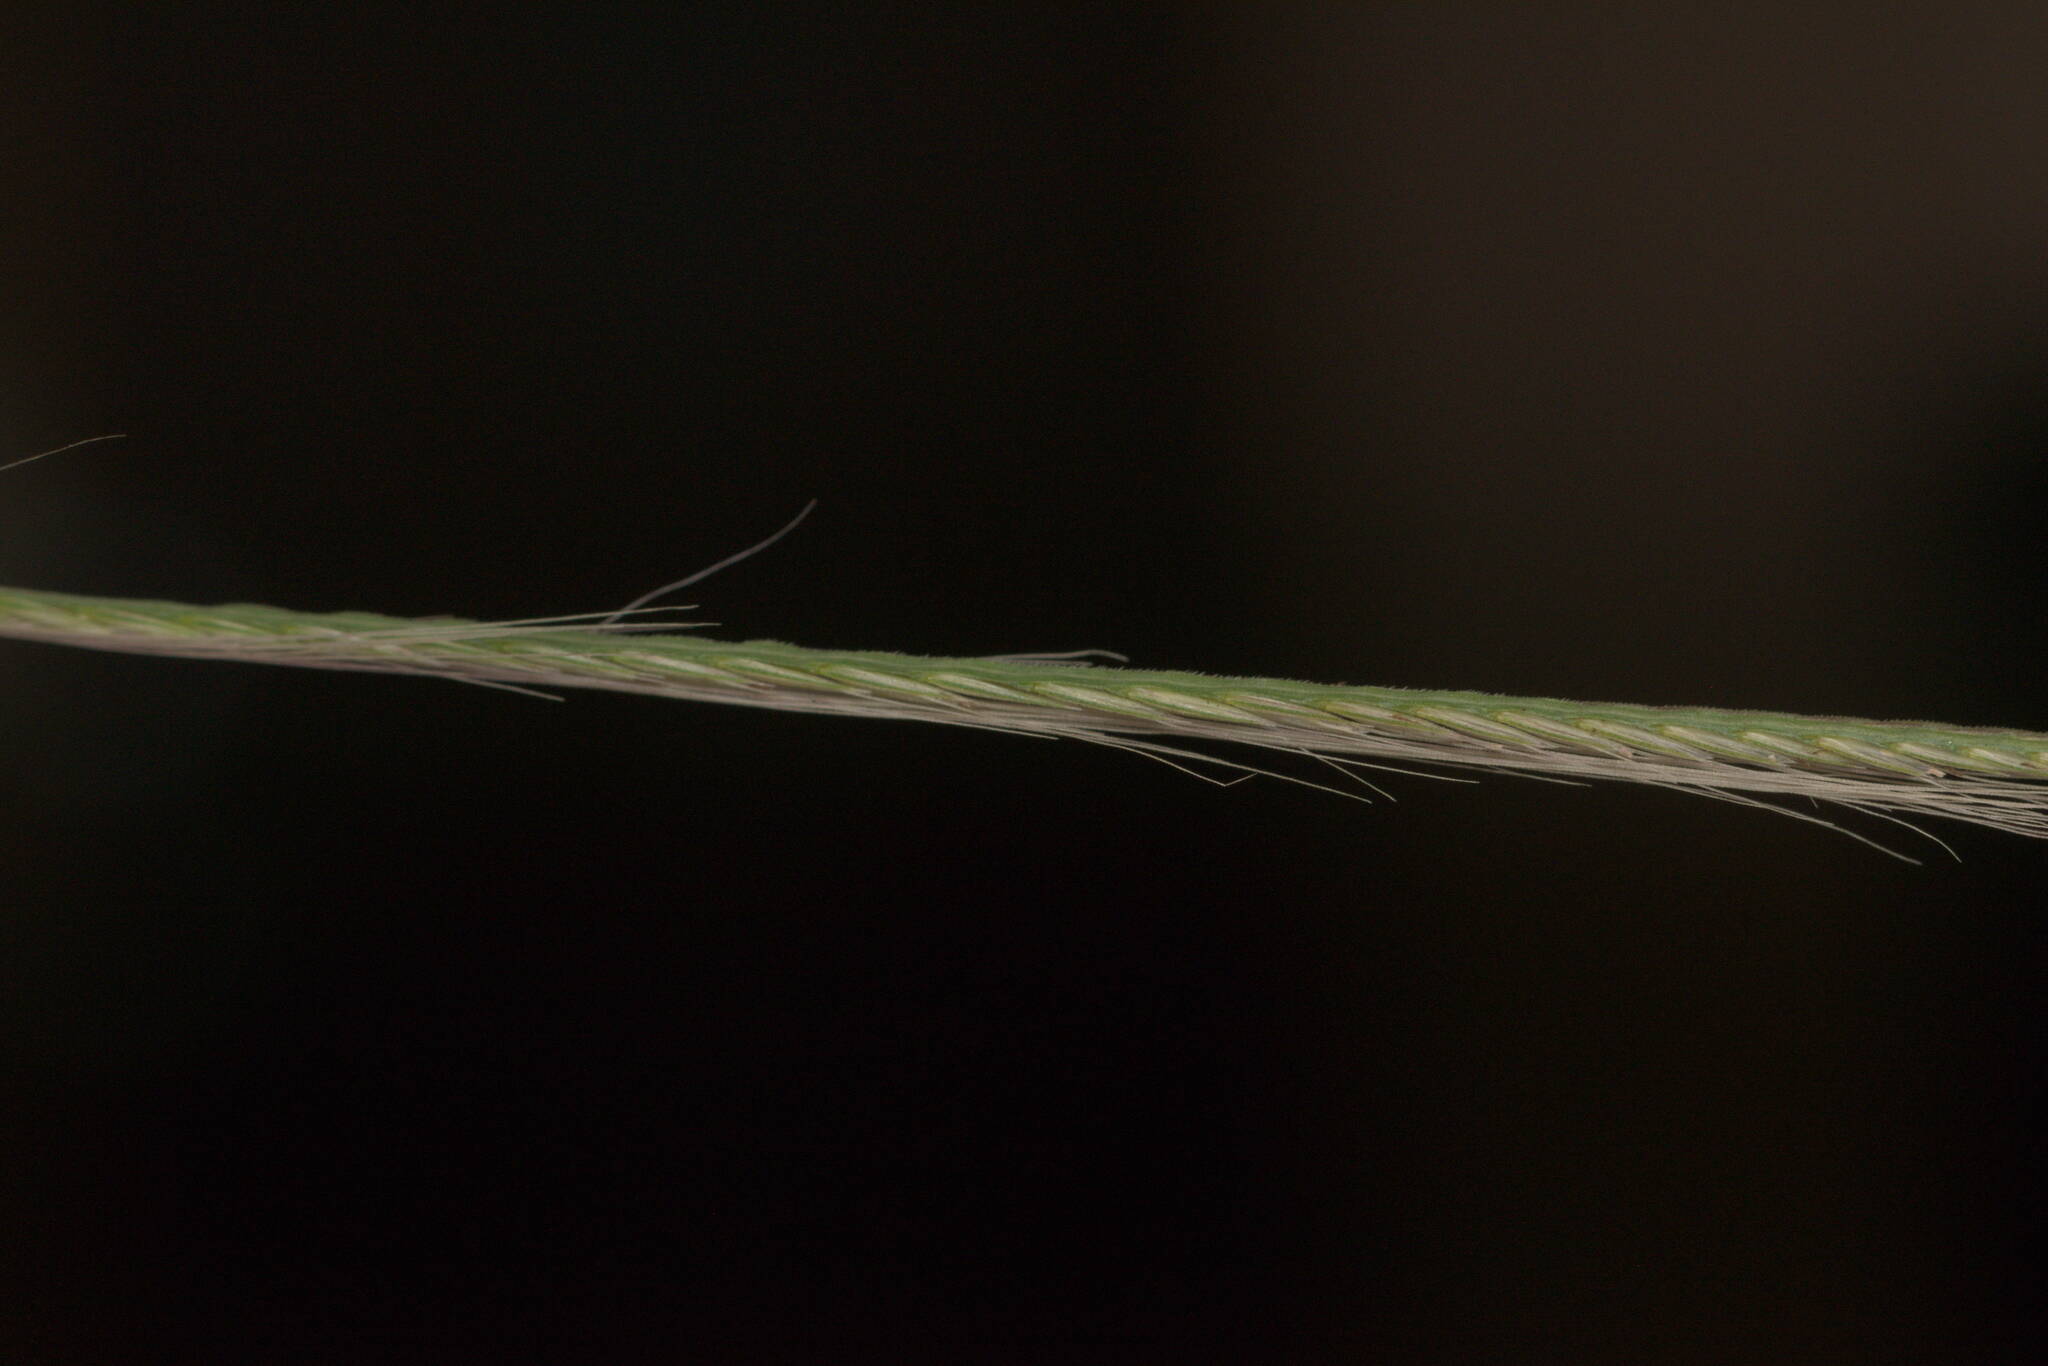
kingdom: Plantae
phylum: Tracheophyta
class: Liliopsida
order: Poales
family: Poaceae
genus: Chloris
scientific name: Chloris pycnothrix
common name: Spiderweb chloris
